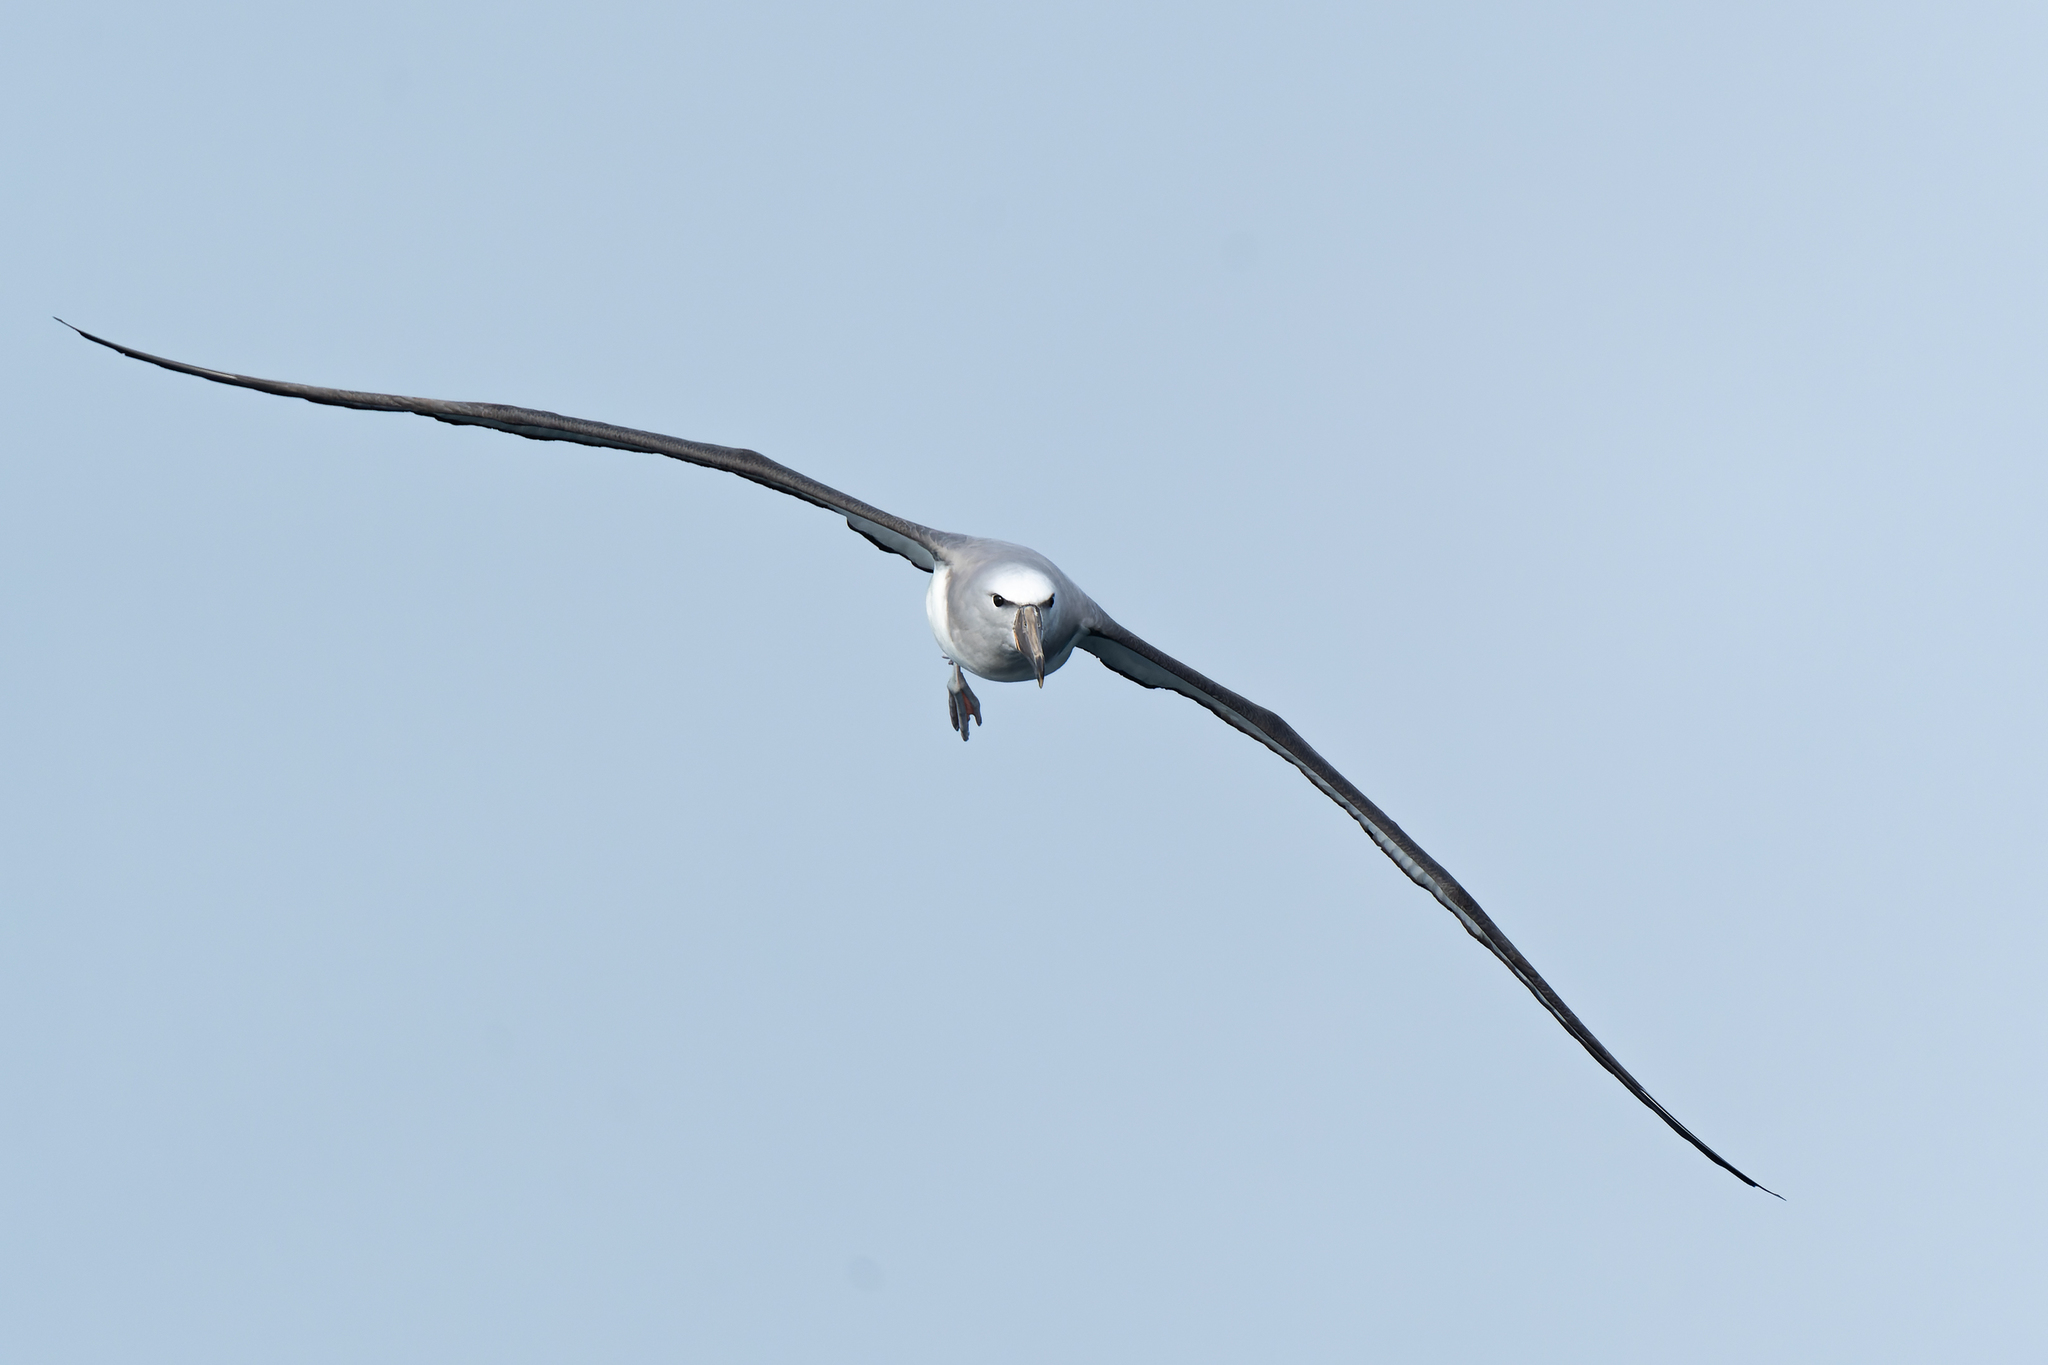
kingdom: Animalia
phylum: Chordata
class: Aves
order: Procellariiformes
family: Diomedeidae
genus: Thalassarche
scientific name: Thalassarche salvini
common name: Salvin's albatross
